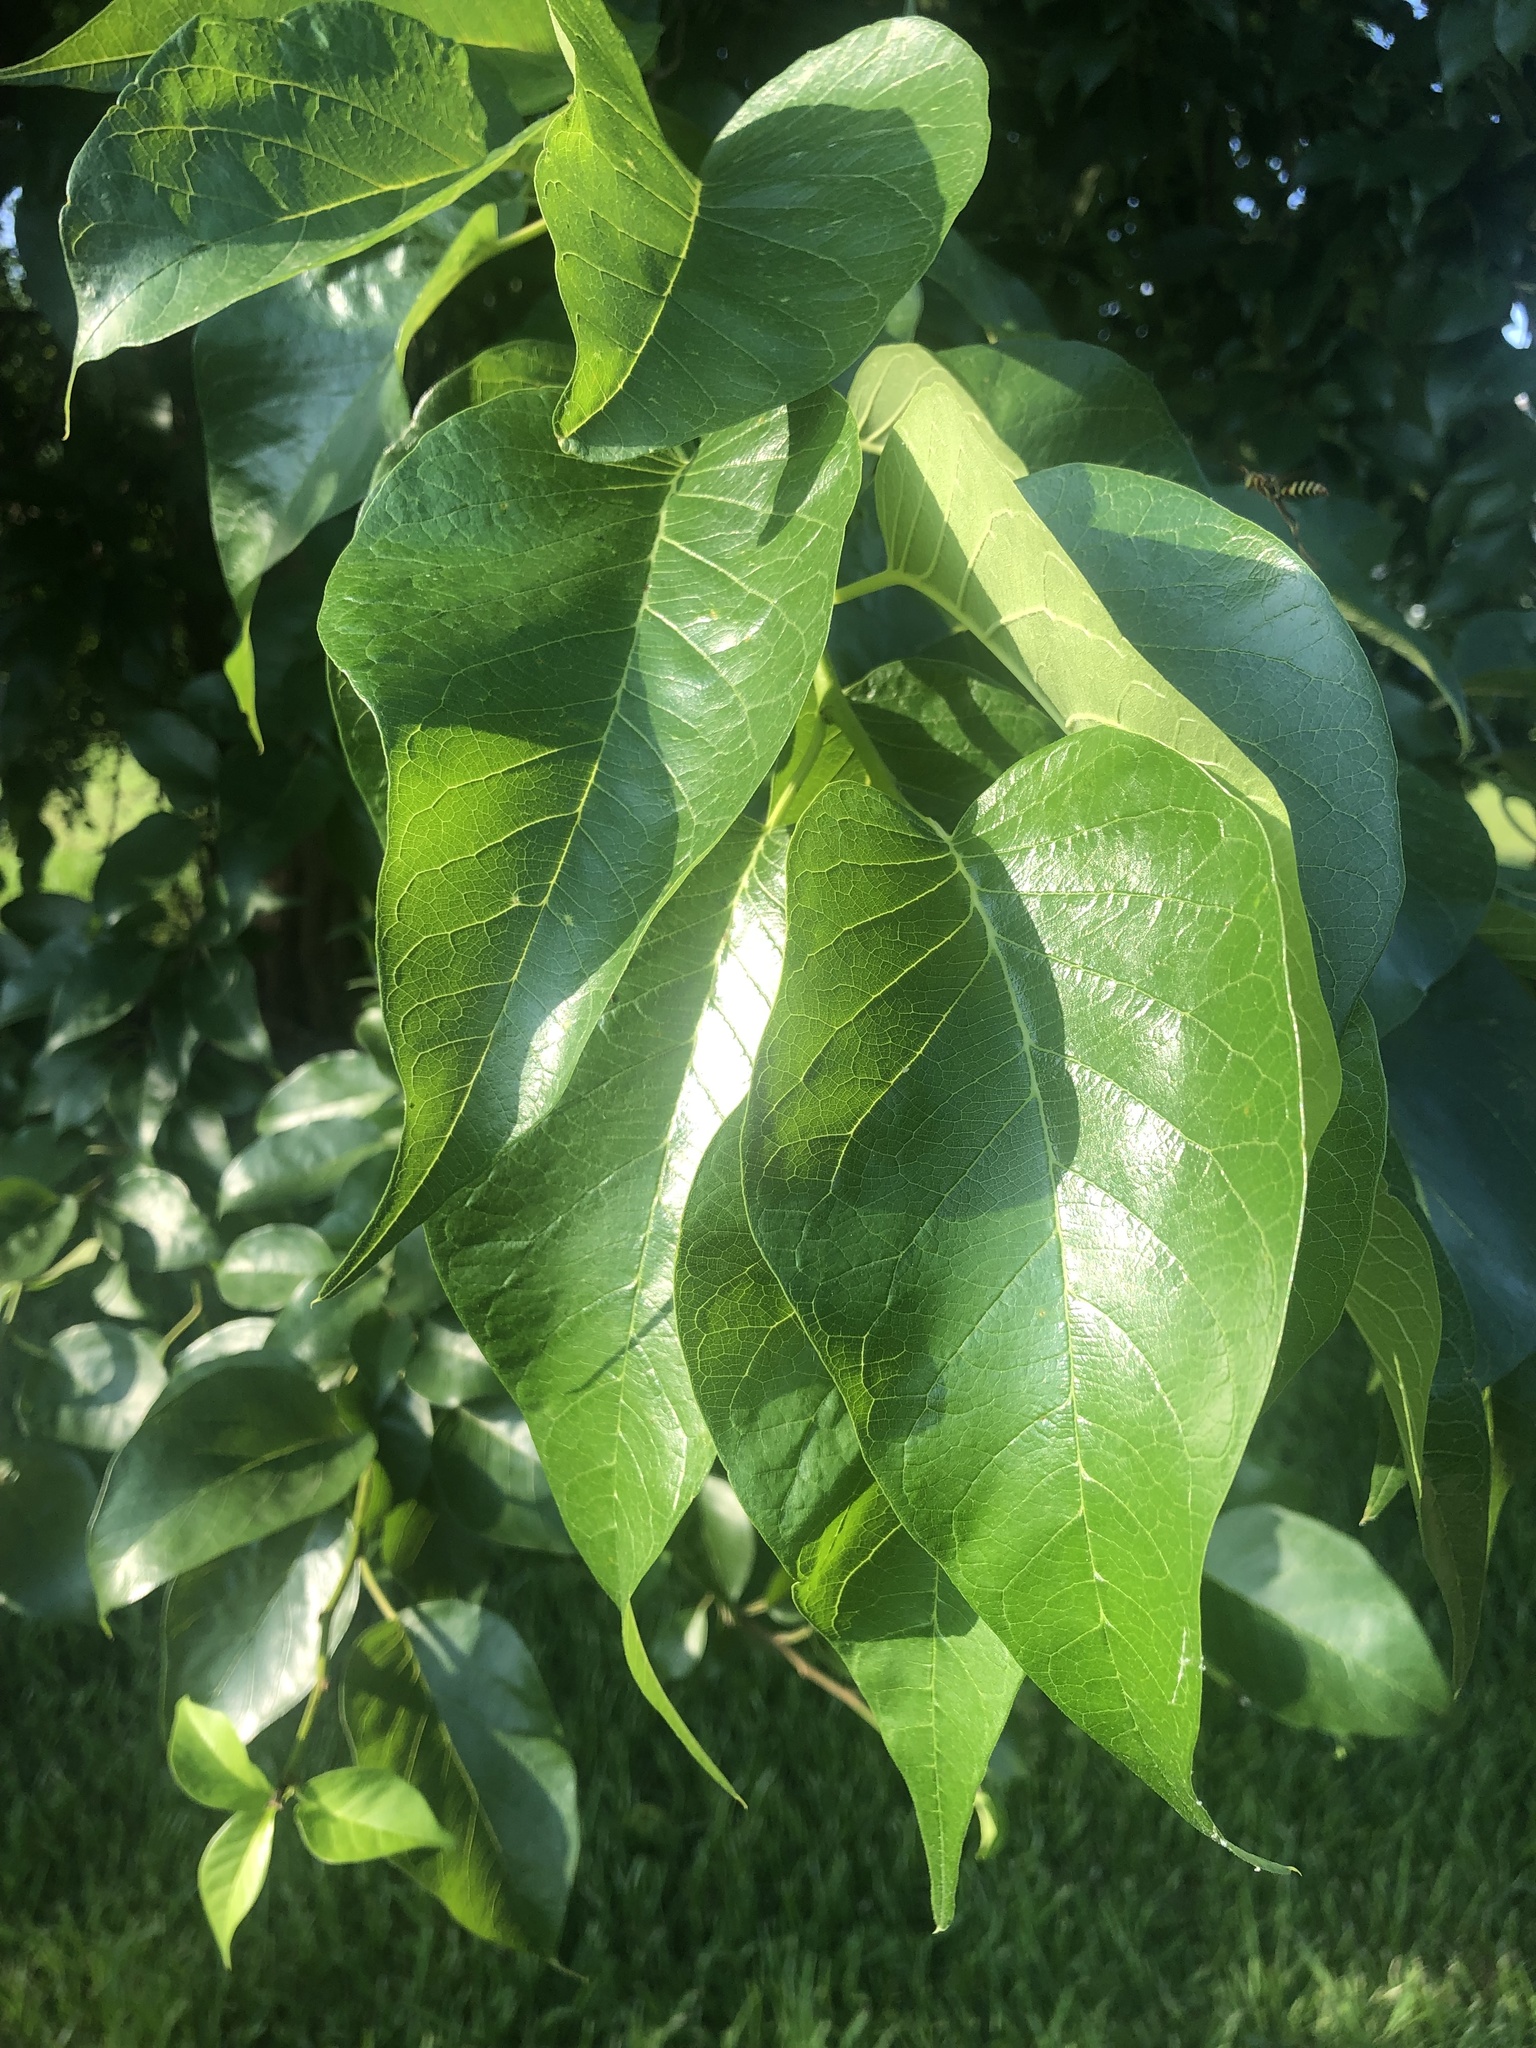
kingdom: Plantae
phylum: Tracheophyta
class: Magnoliopsida
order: Rosales
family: Moraceae
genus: Maclura
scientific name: Maclura pomifera
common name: Osage-orange
